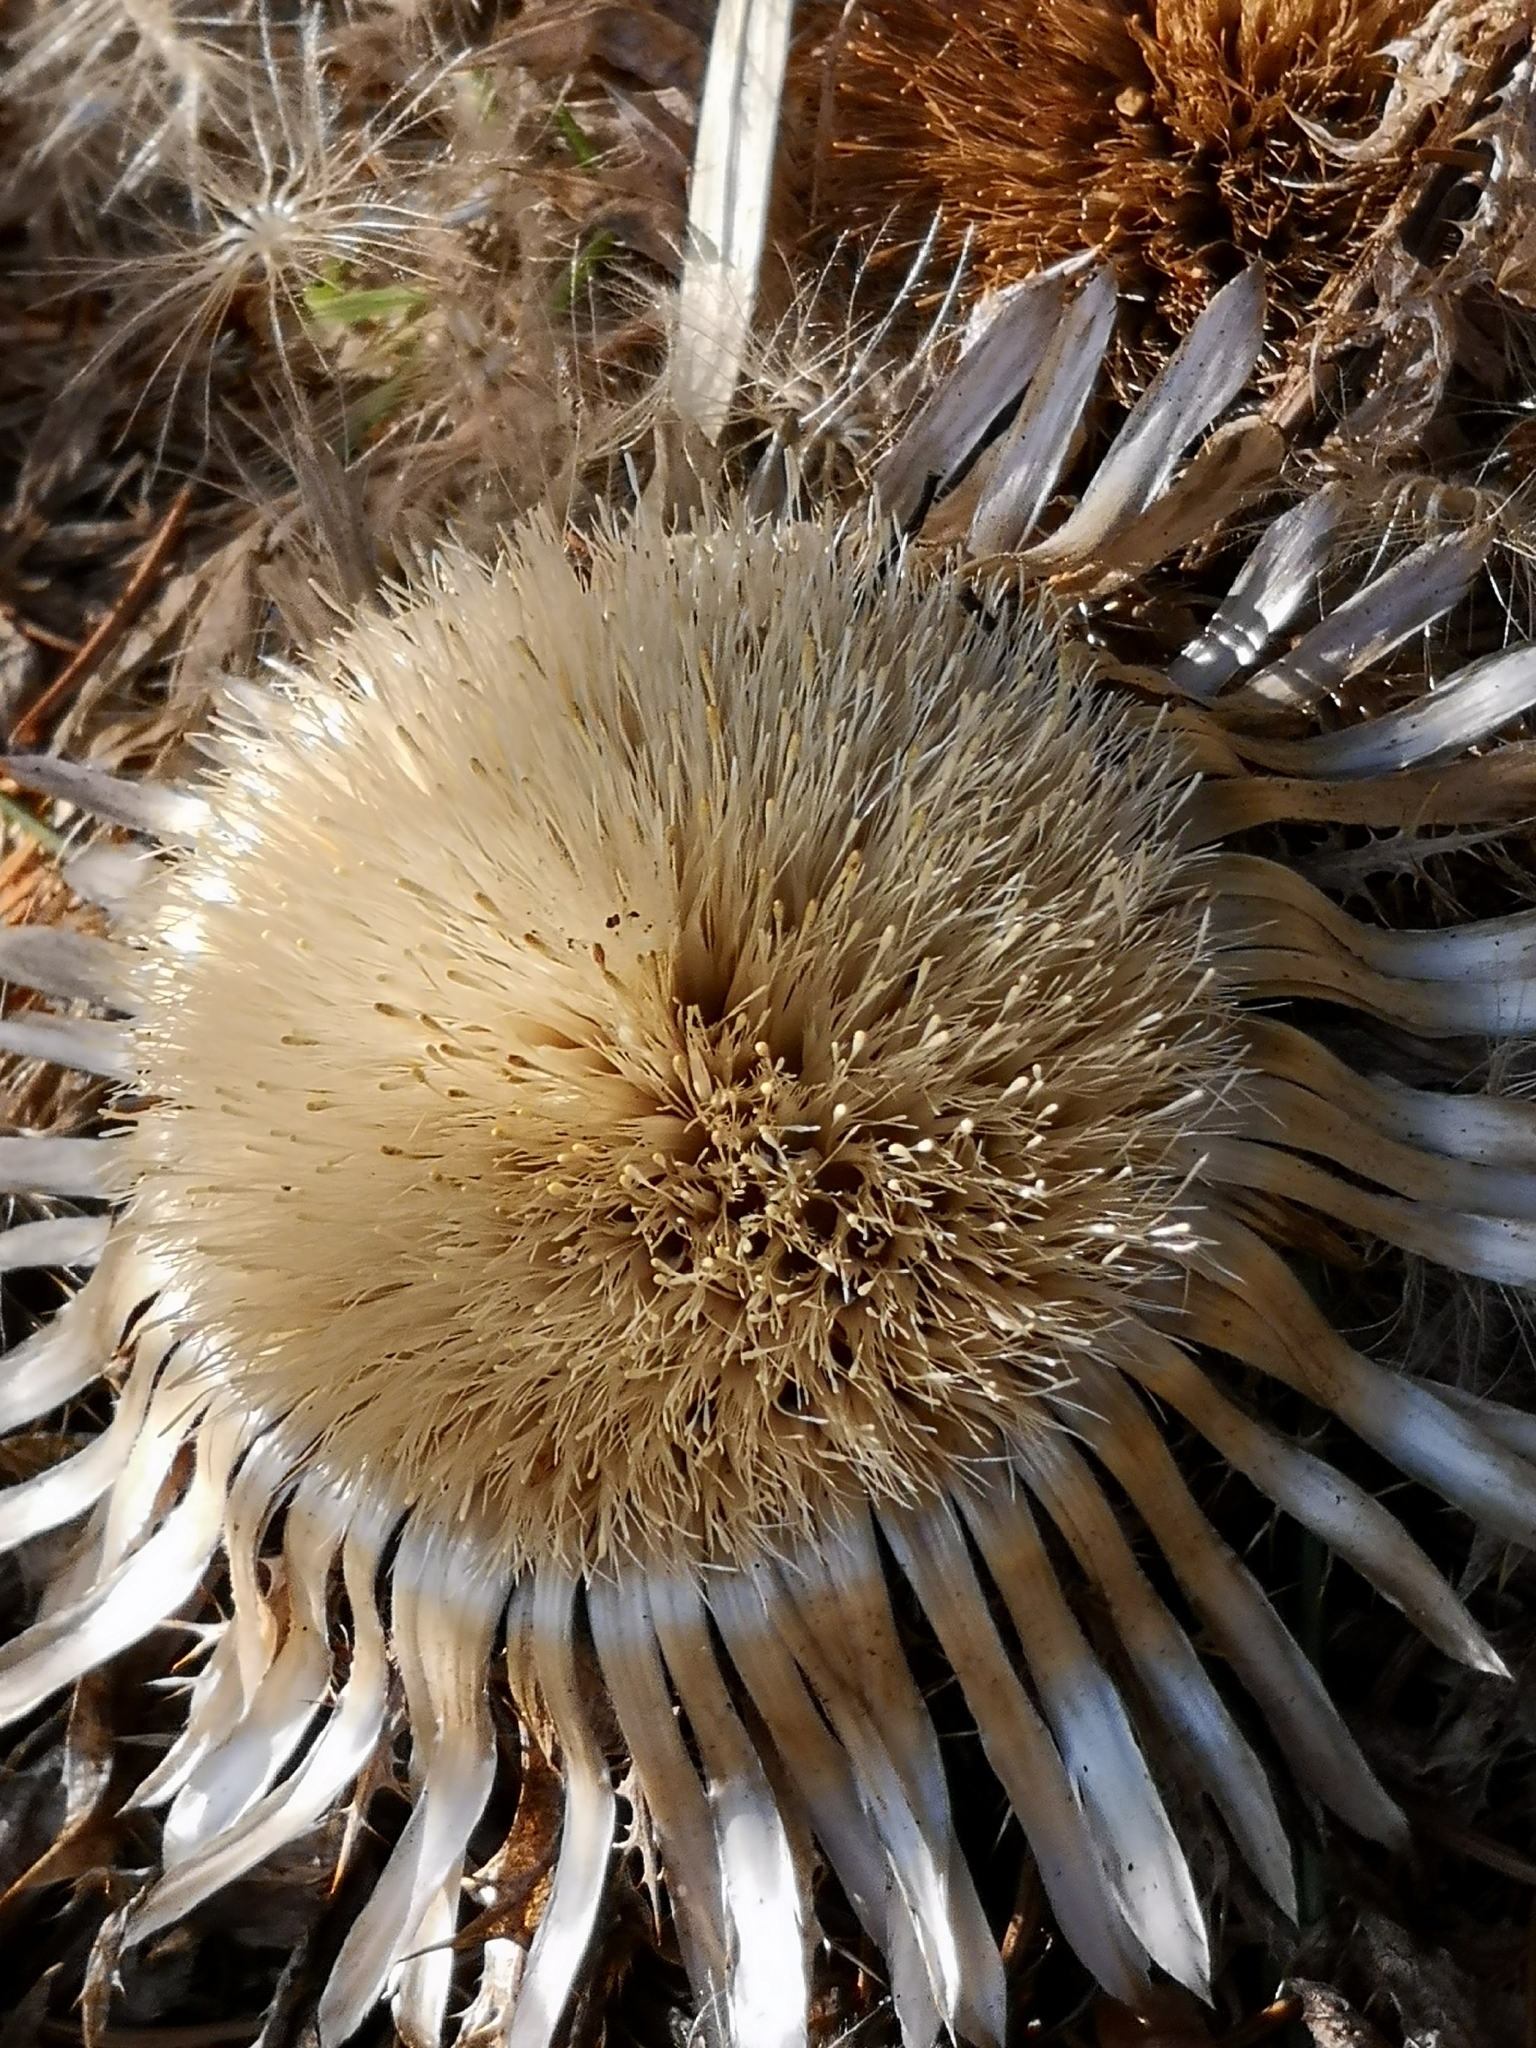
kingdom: Plantae
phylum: Tracheophyta
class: Magnoliopsida
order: Asterales
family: Asteraceae
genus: Carlina
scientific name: Carlina acaulis
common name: Stemless carline thistle
